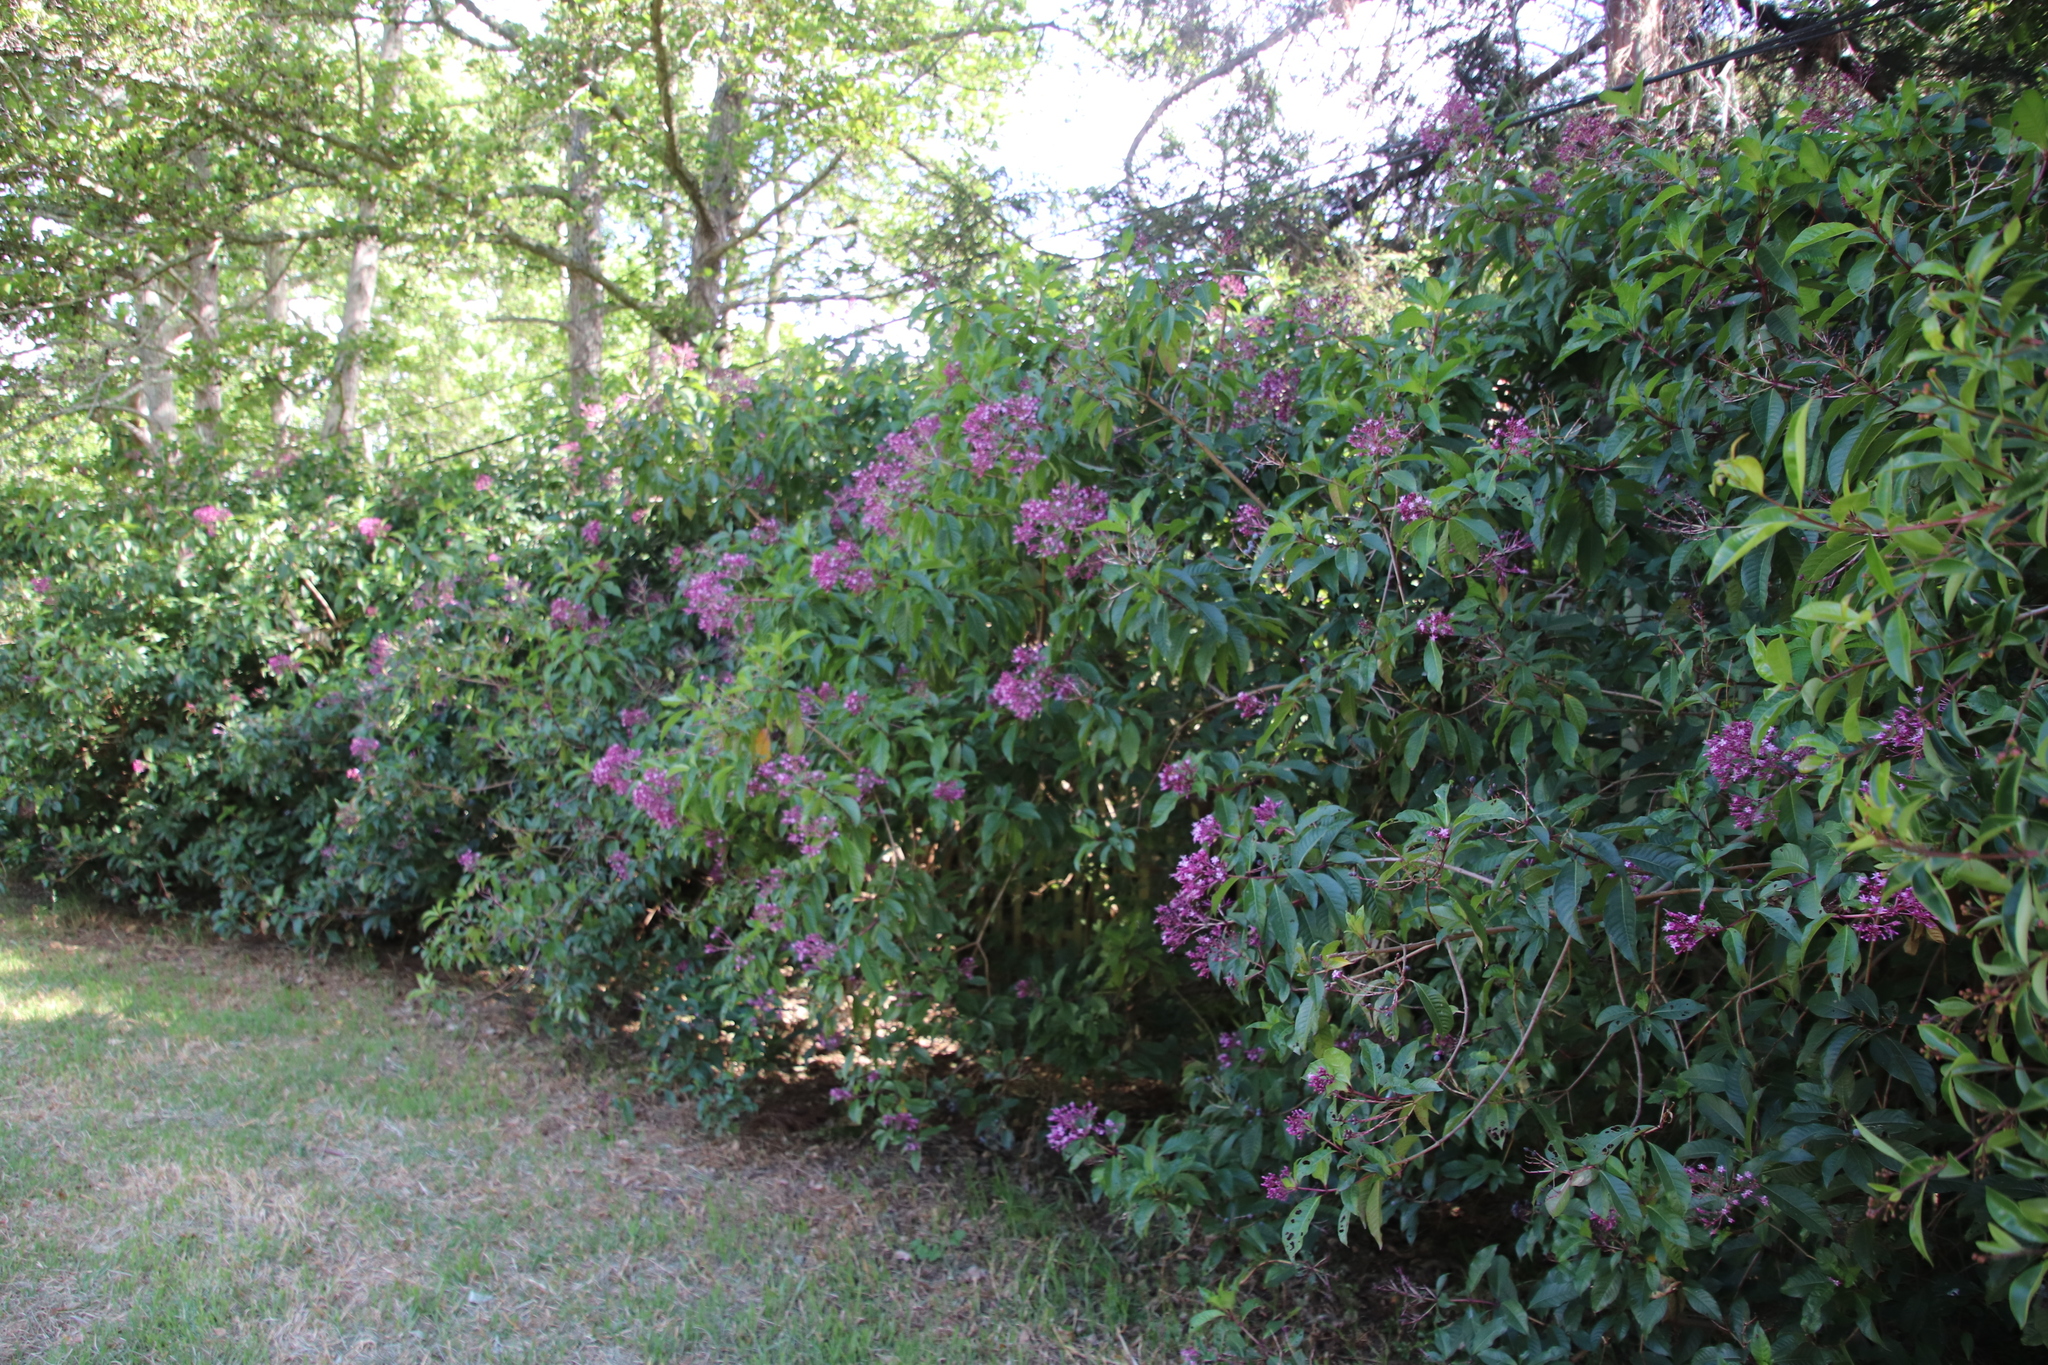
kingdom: Plantae
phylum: Tracheophyta
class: Magnoliopsida
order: Myrtales
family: Onagraceae
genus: Fuchsia
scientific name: Fuchsia paniculata
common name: Shrubby fuchsia
